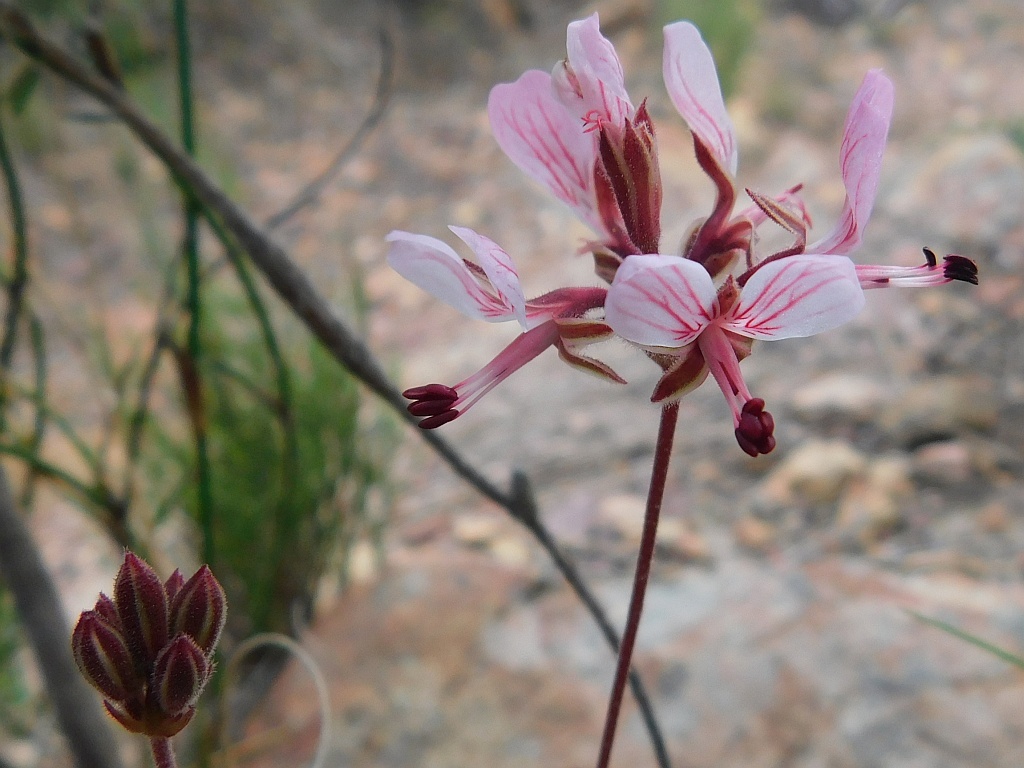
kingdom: Plantae
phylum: Tracheophyta
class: Magnoliopsida
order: Geraniales
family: Geraniaceae
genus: Pelargonium
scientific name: Pelargonium dipetalum
